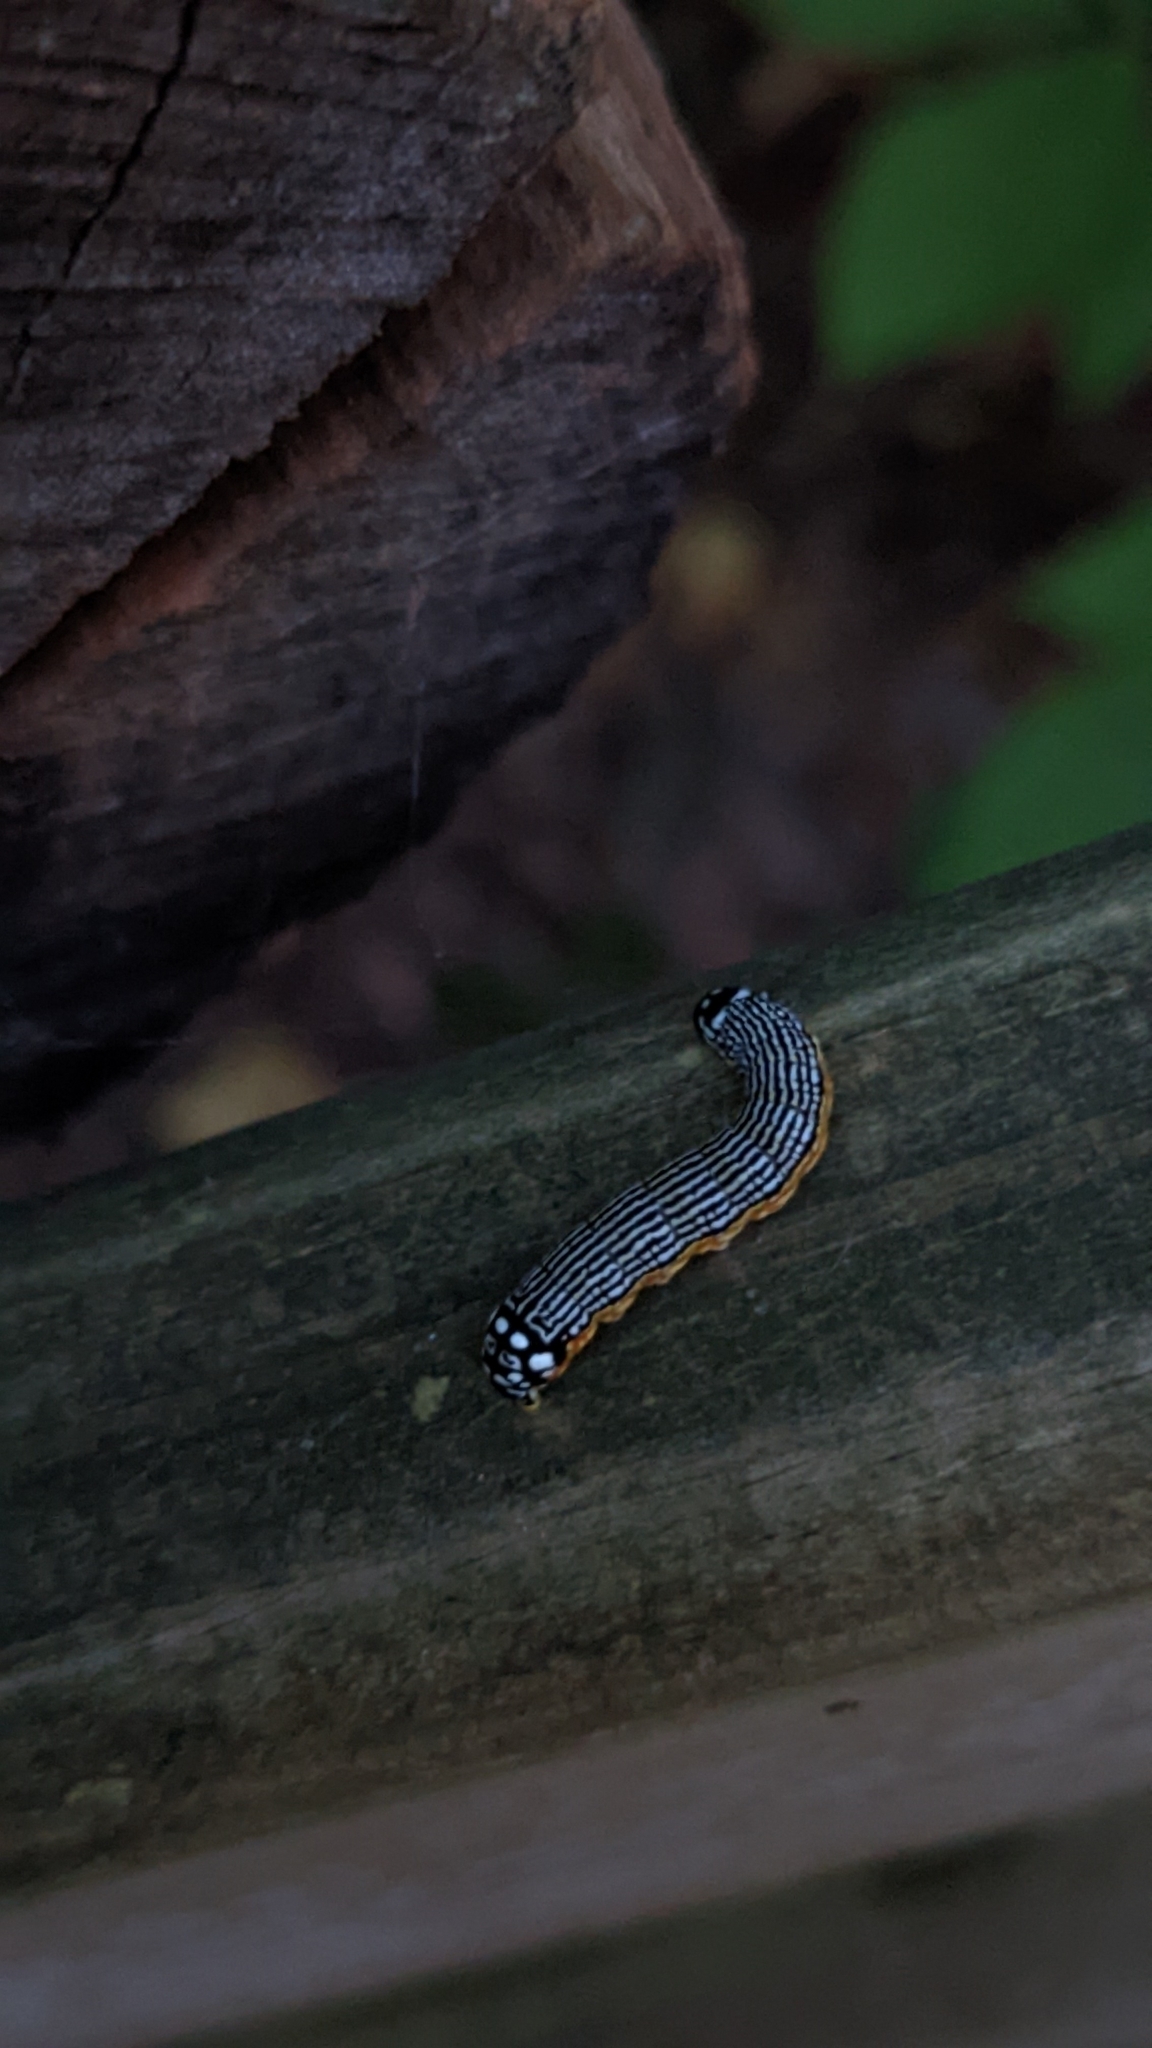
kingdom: Animalia
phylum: Arthropoda
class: Insecta
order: Lepidoptera
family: Noctuidae
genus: Phosphila
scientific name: Phosphila turbulenta
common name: Turbulent phosphila moth
